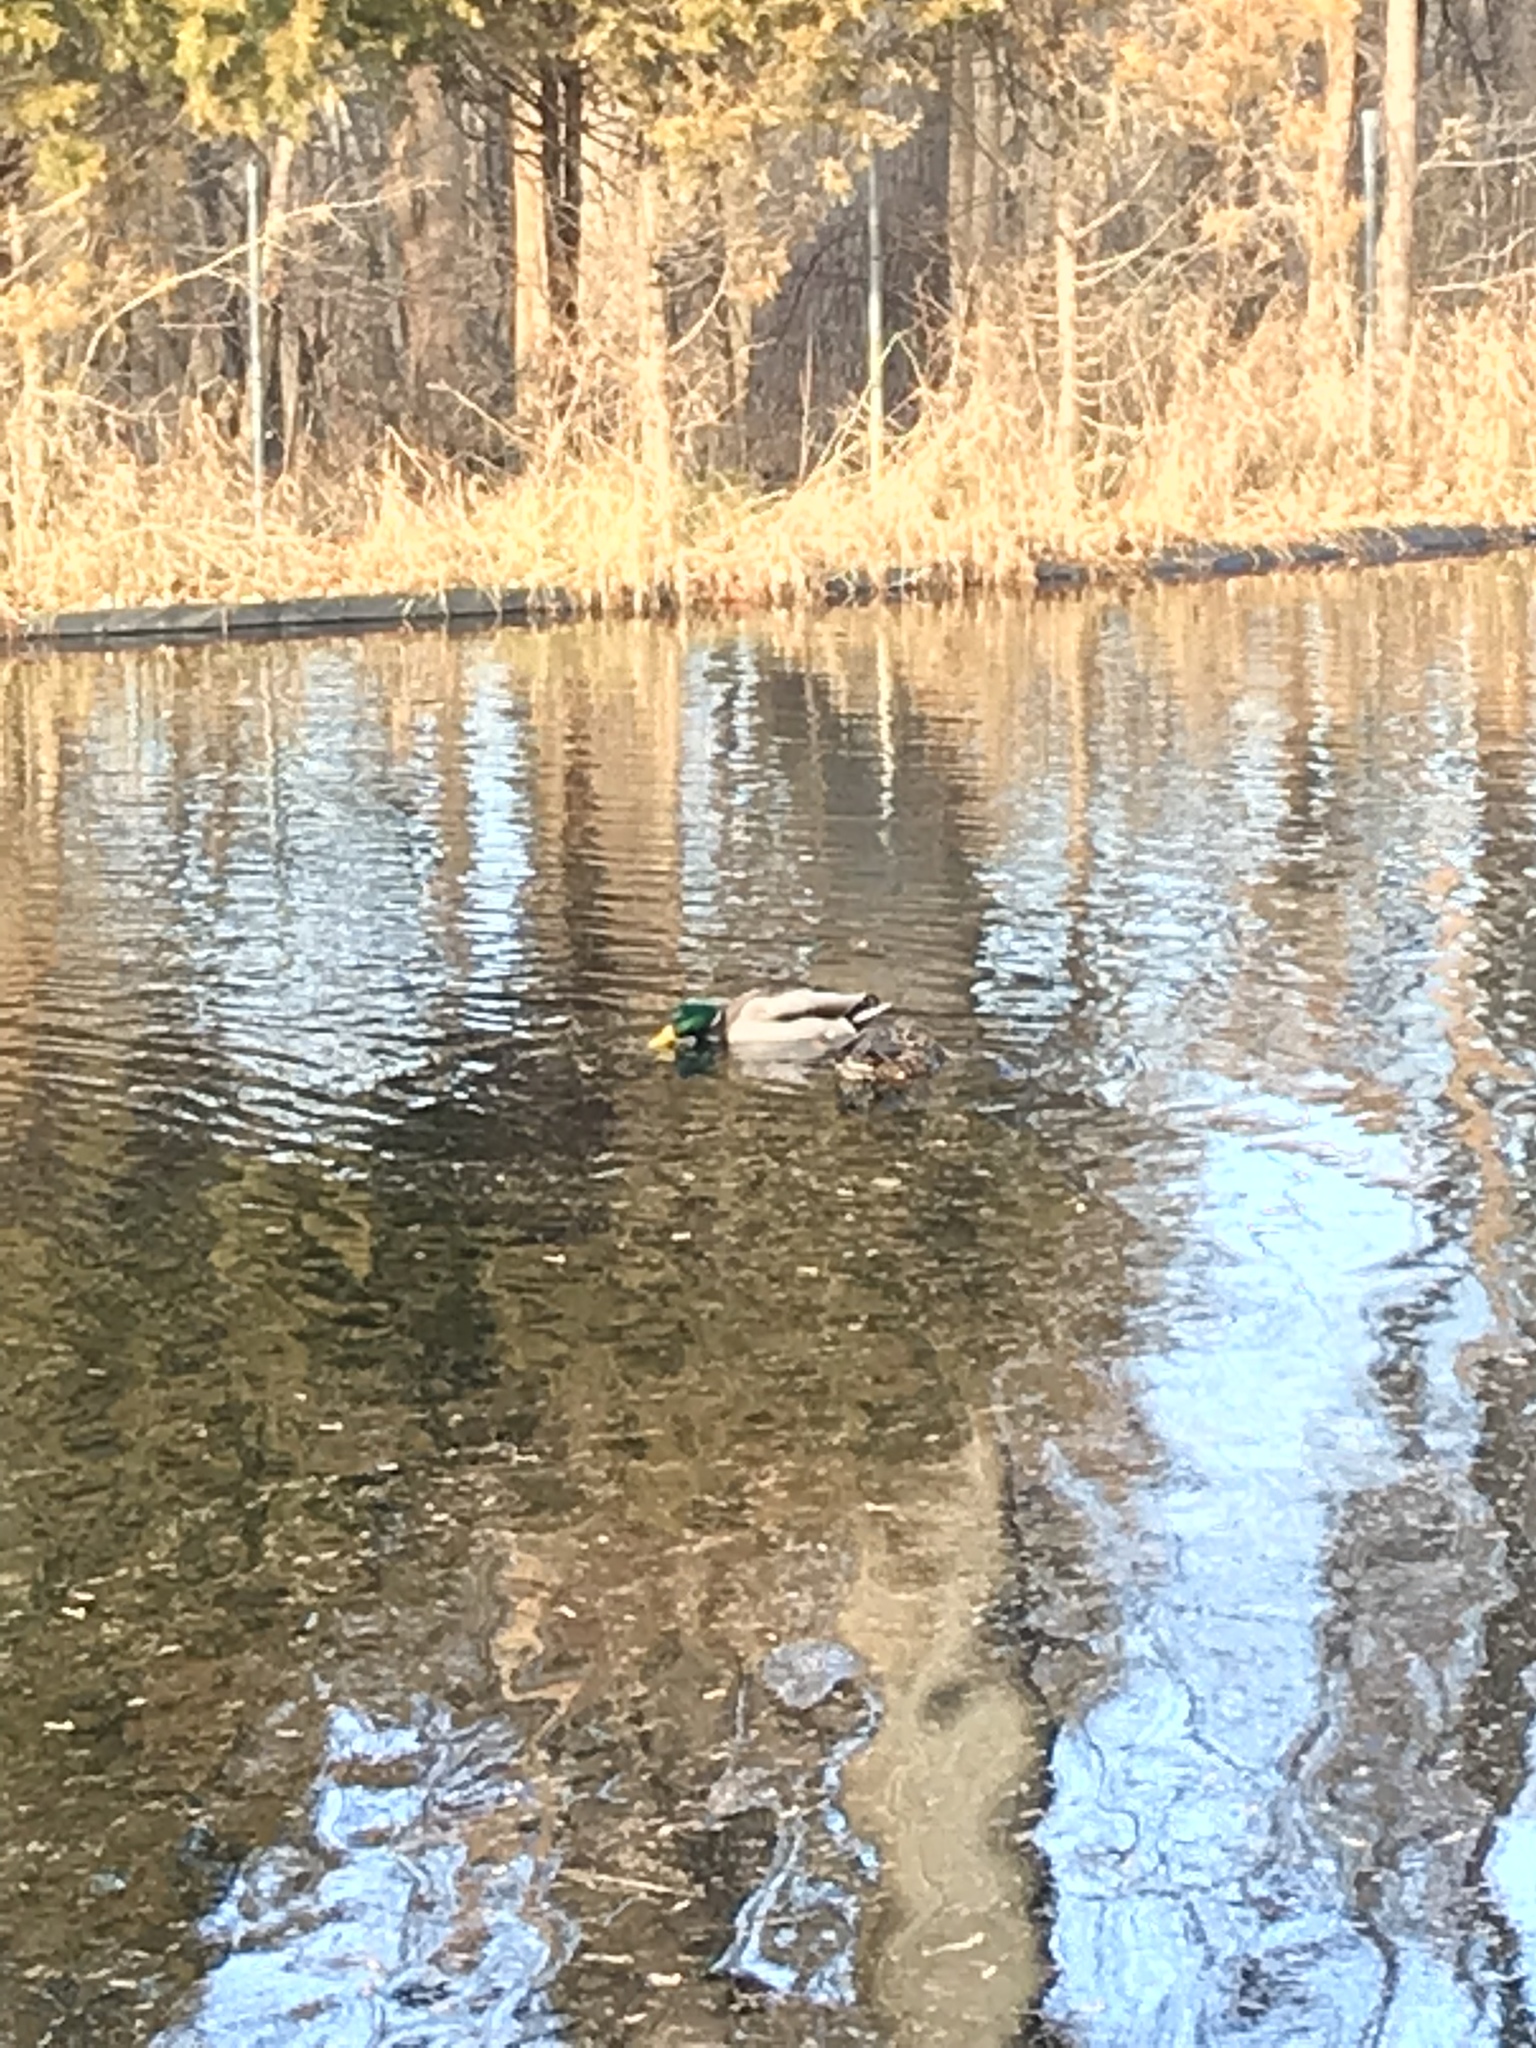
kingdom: Animalia
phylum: Chordata
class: Aves
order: Anseriformes
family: Anatidae
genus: Anas
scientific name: Anas platyrhynchos
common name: Mallard
